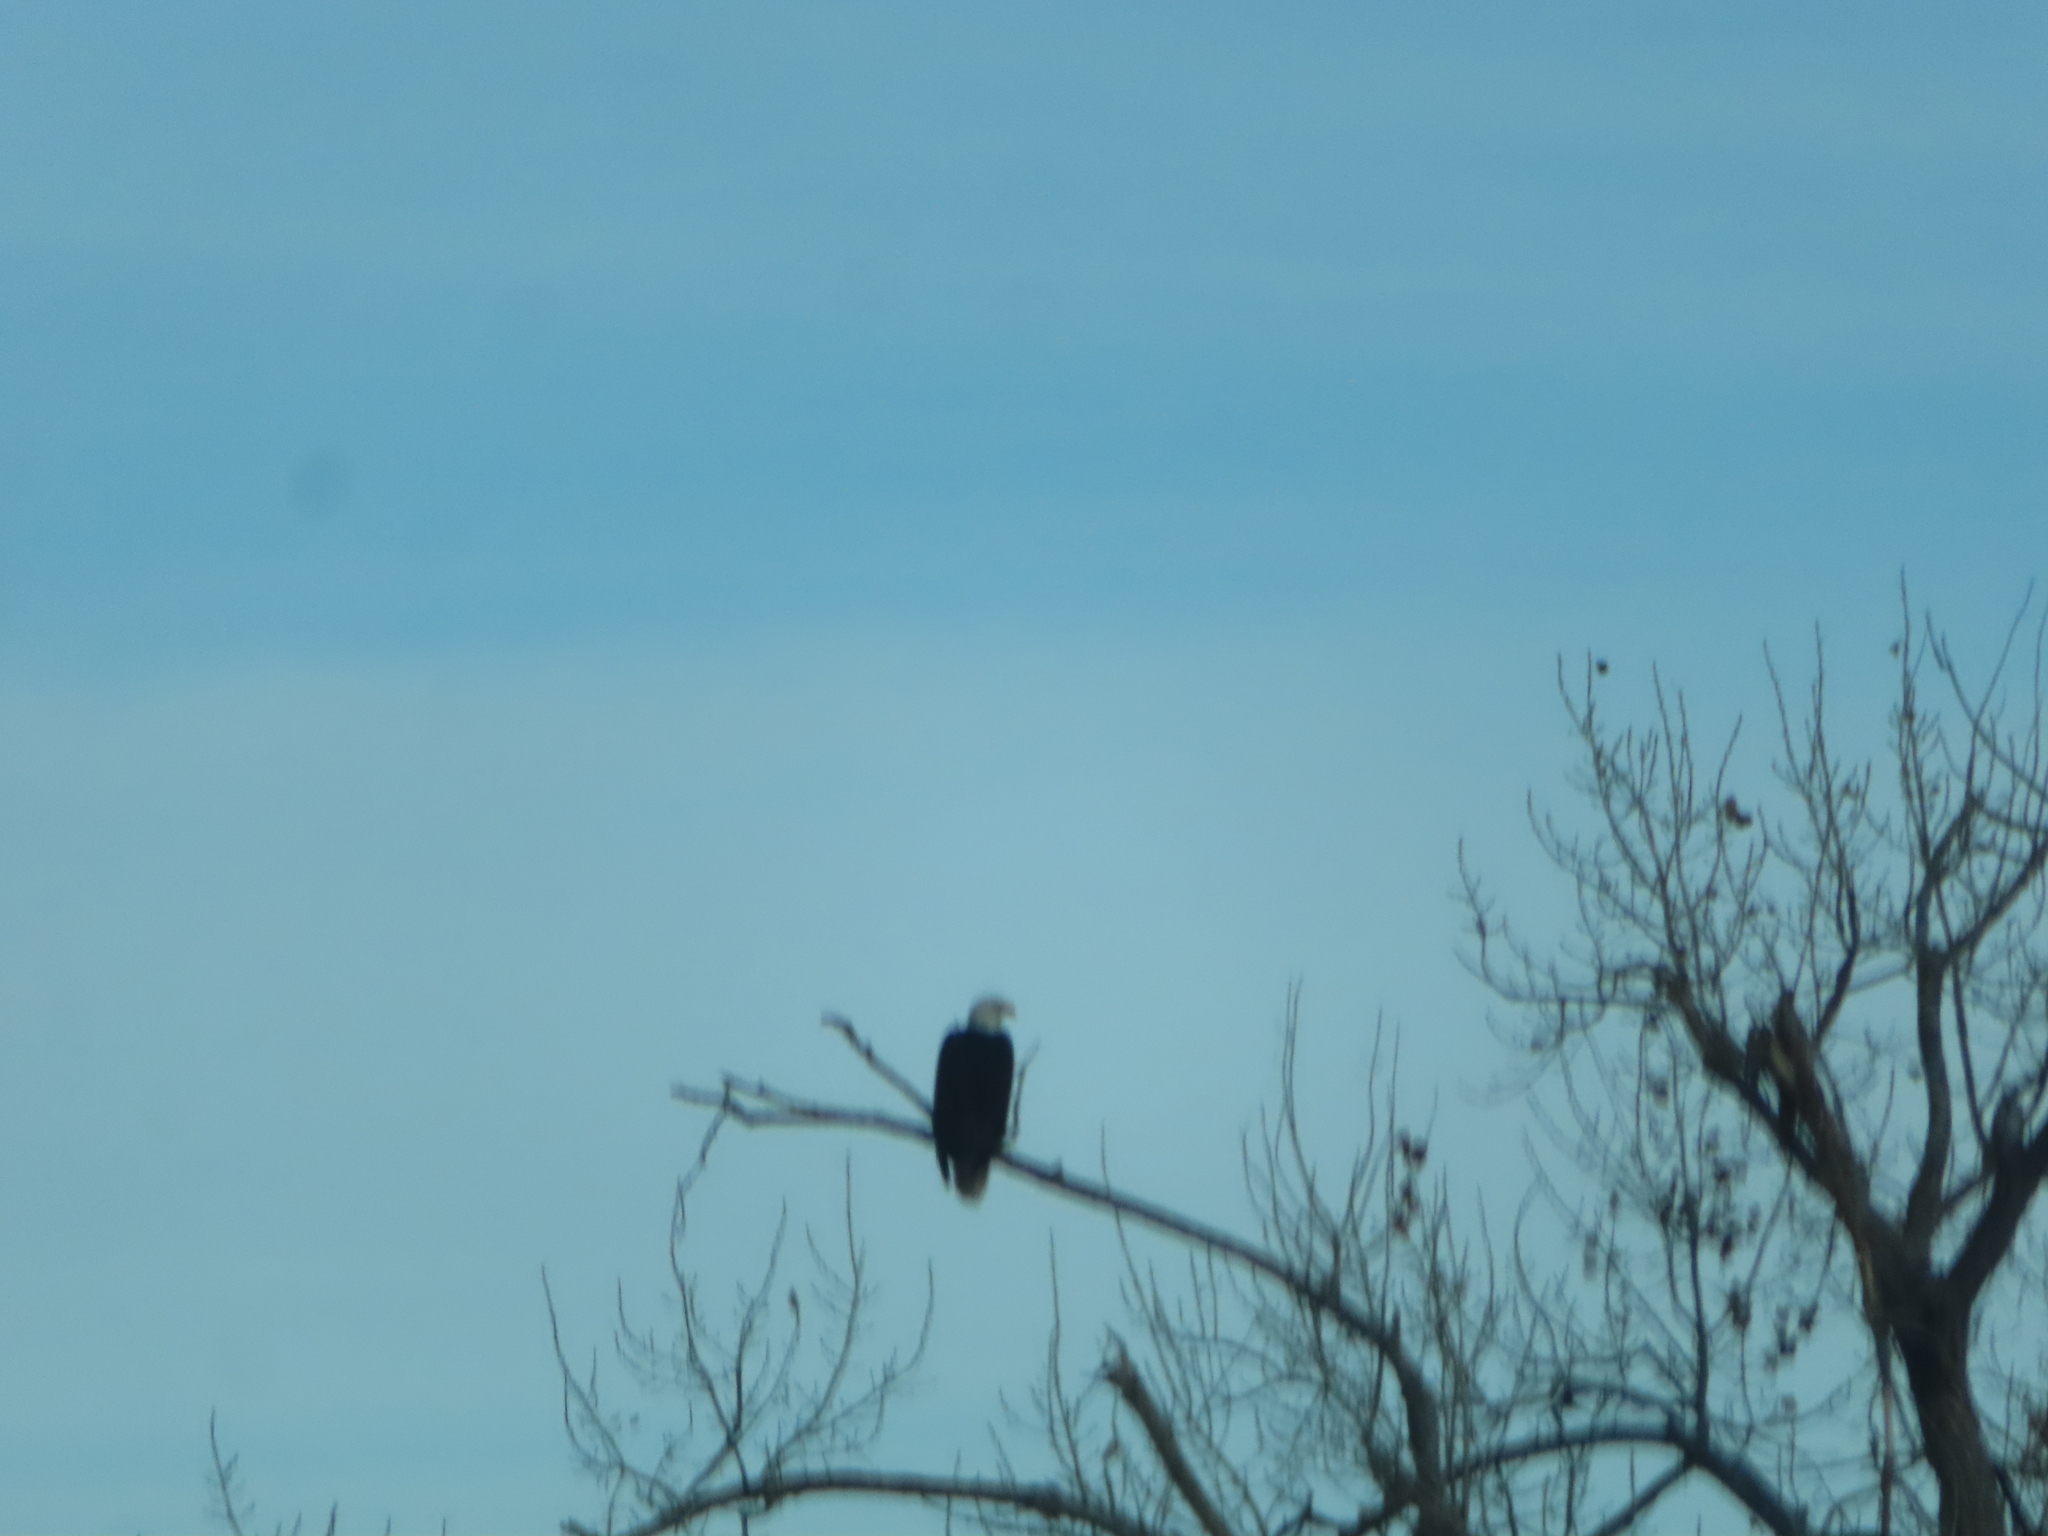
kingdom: Animalia
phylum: Chordata
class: Aves
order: Accipitriformes
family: Accipitridae
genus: Haliaeetus
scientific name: Haliaeetus leucocephalus
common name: Bald eagle
